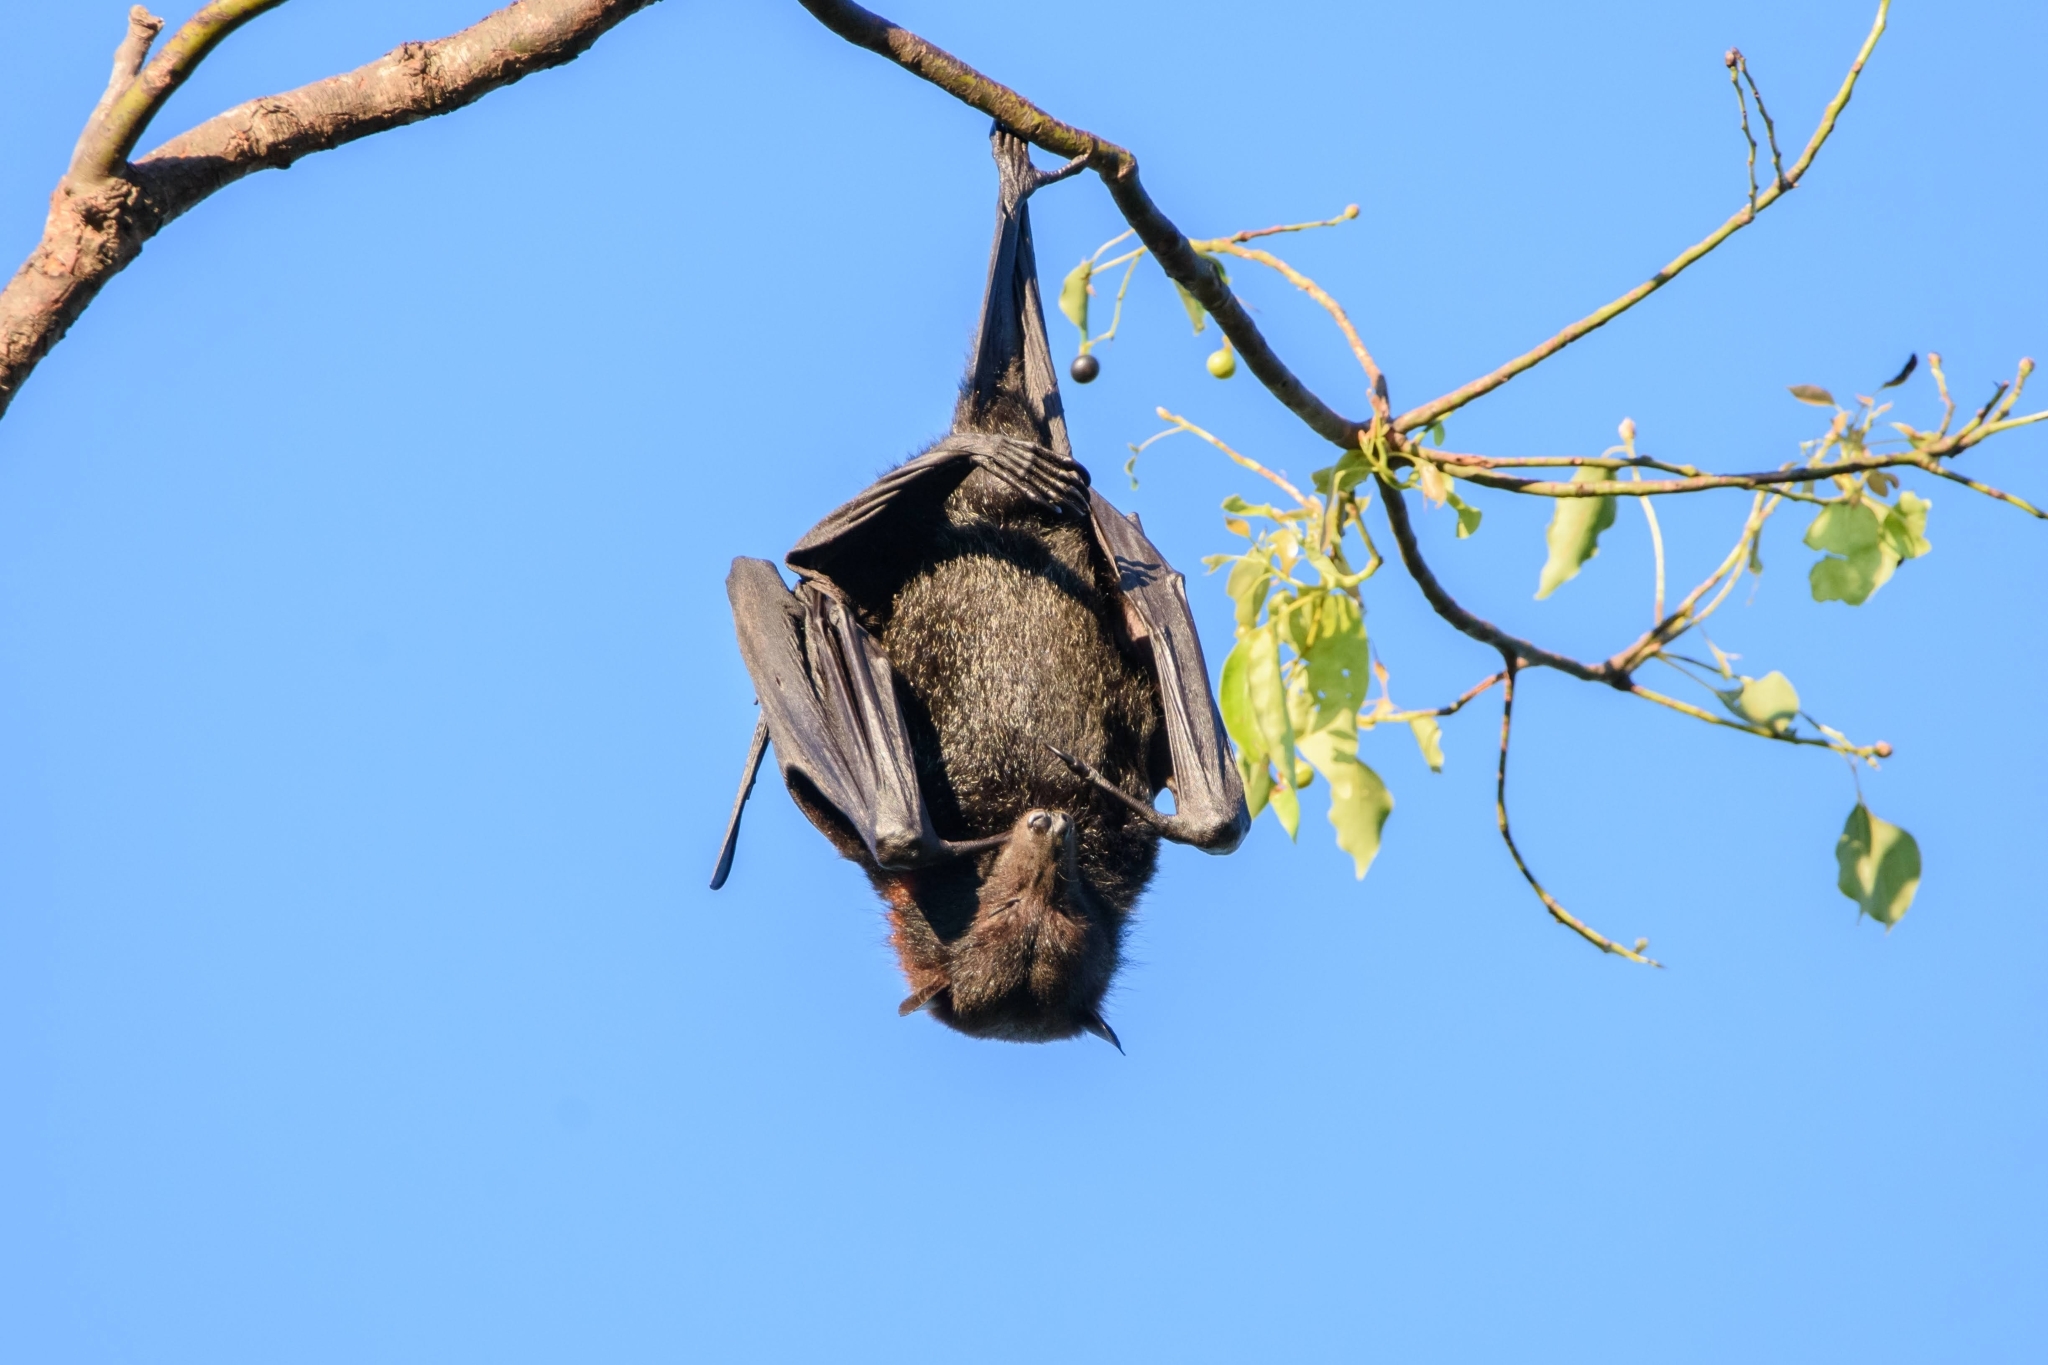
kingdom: Animalia
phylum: Chordata
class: Mammalia
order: Chiroptera
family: Pteropodidae
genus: Pteropus
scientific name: Pteropus alecto
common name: Black flying fox
